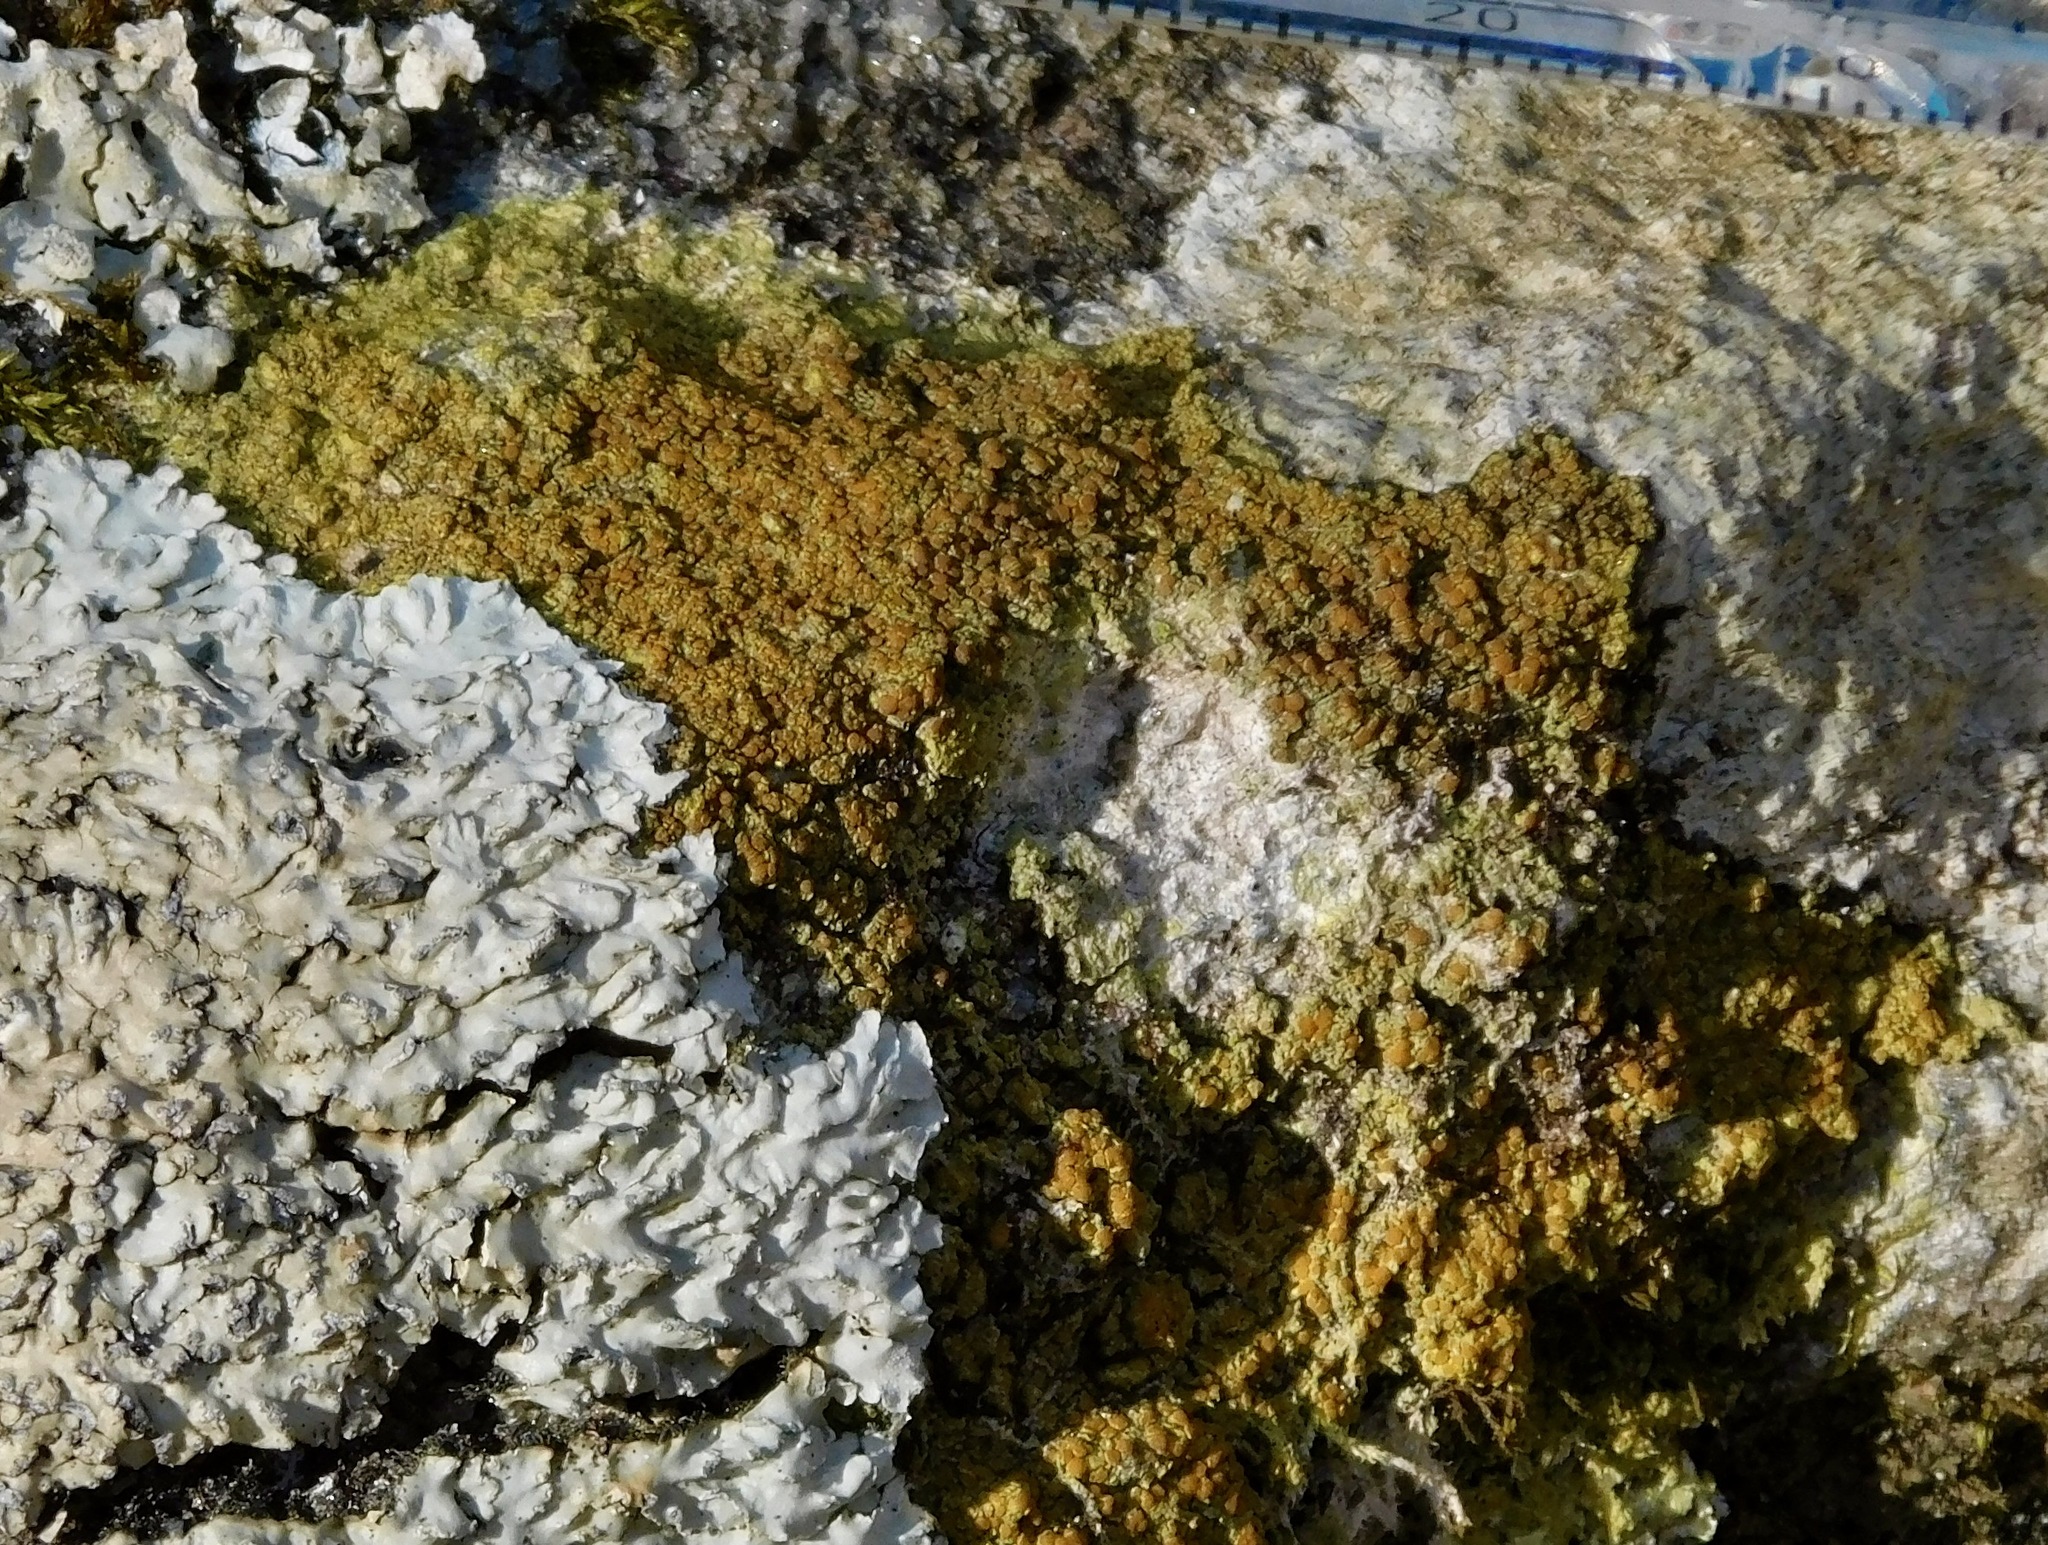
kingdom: Fungi
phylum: Ascomycota
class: Lecanoromycetes
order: Teloschistales
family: Teloschistaceae
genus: Gyalolechia
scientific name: Gyalolechia flavovirescens
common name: Sulphur firedot
